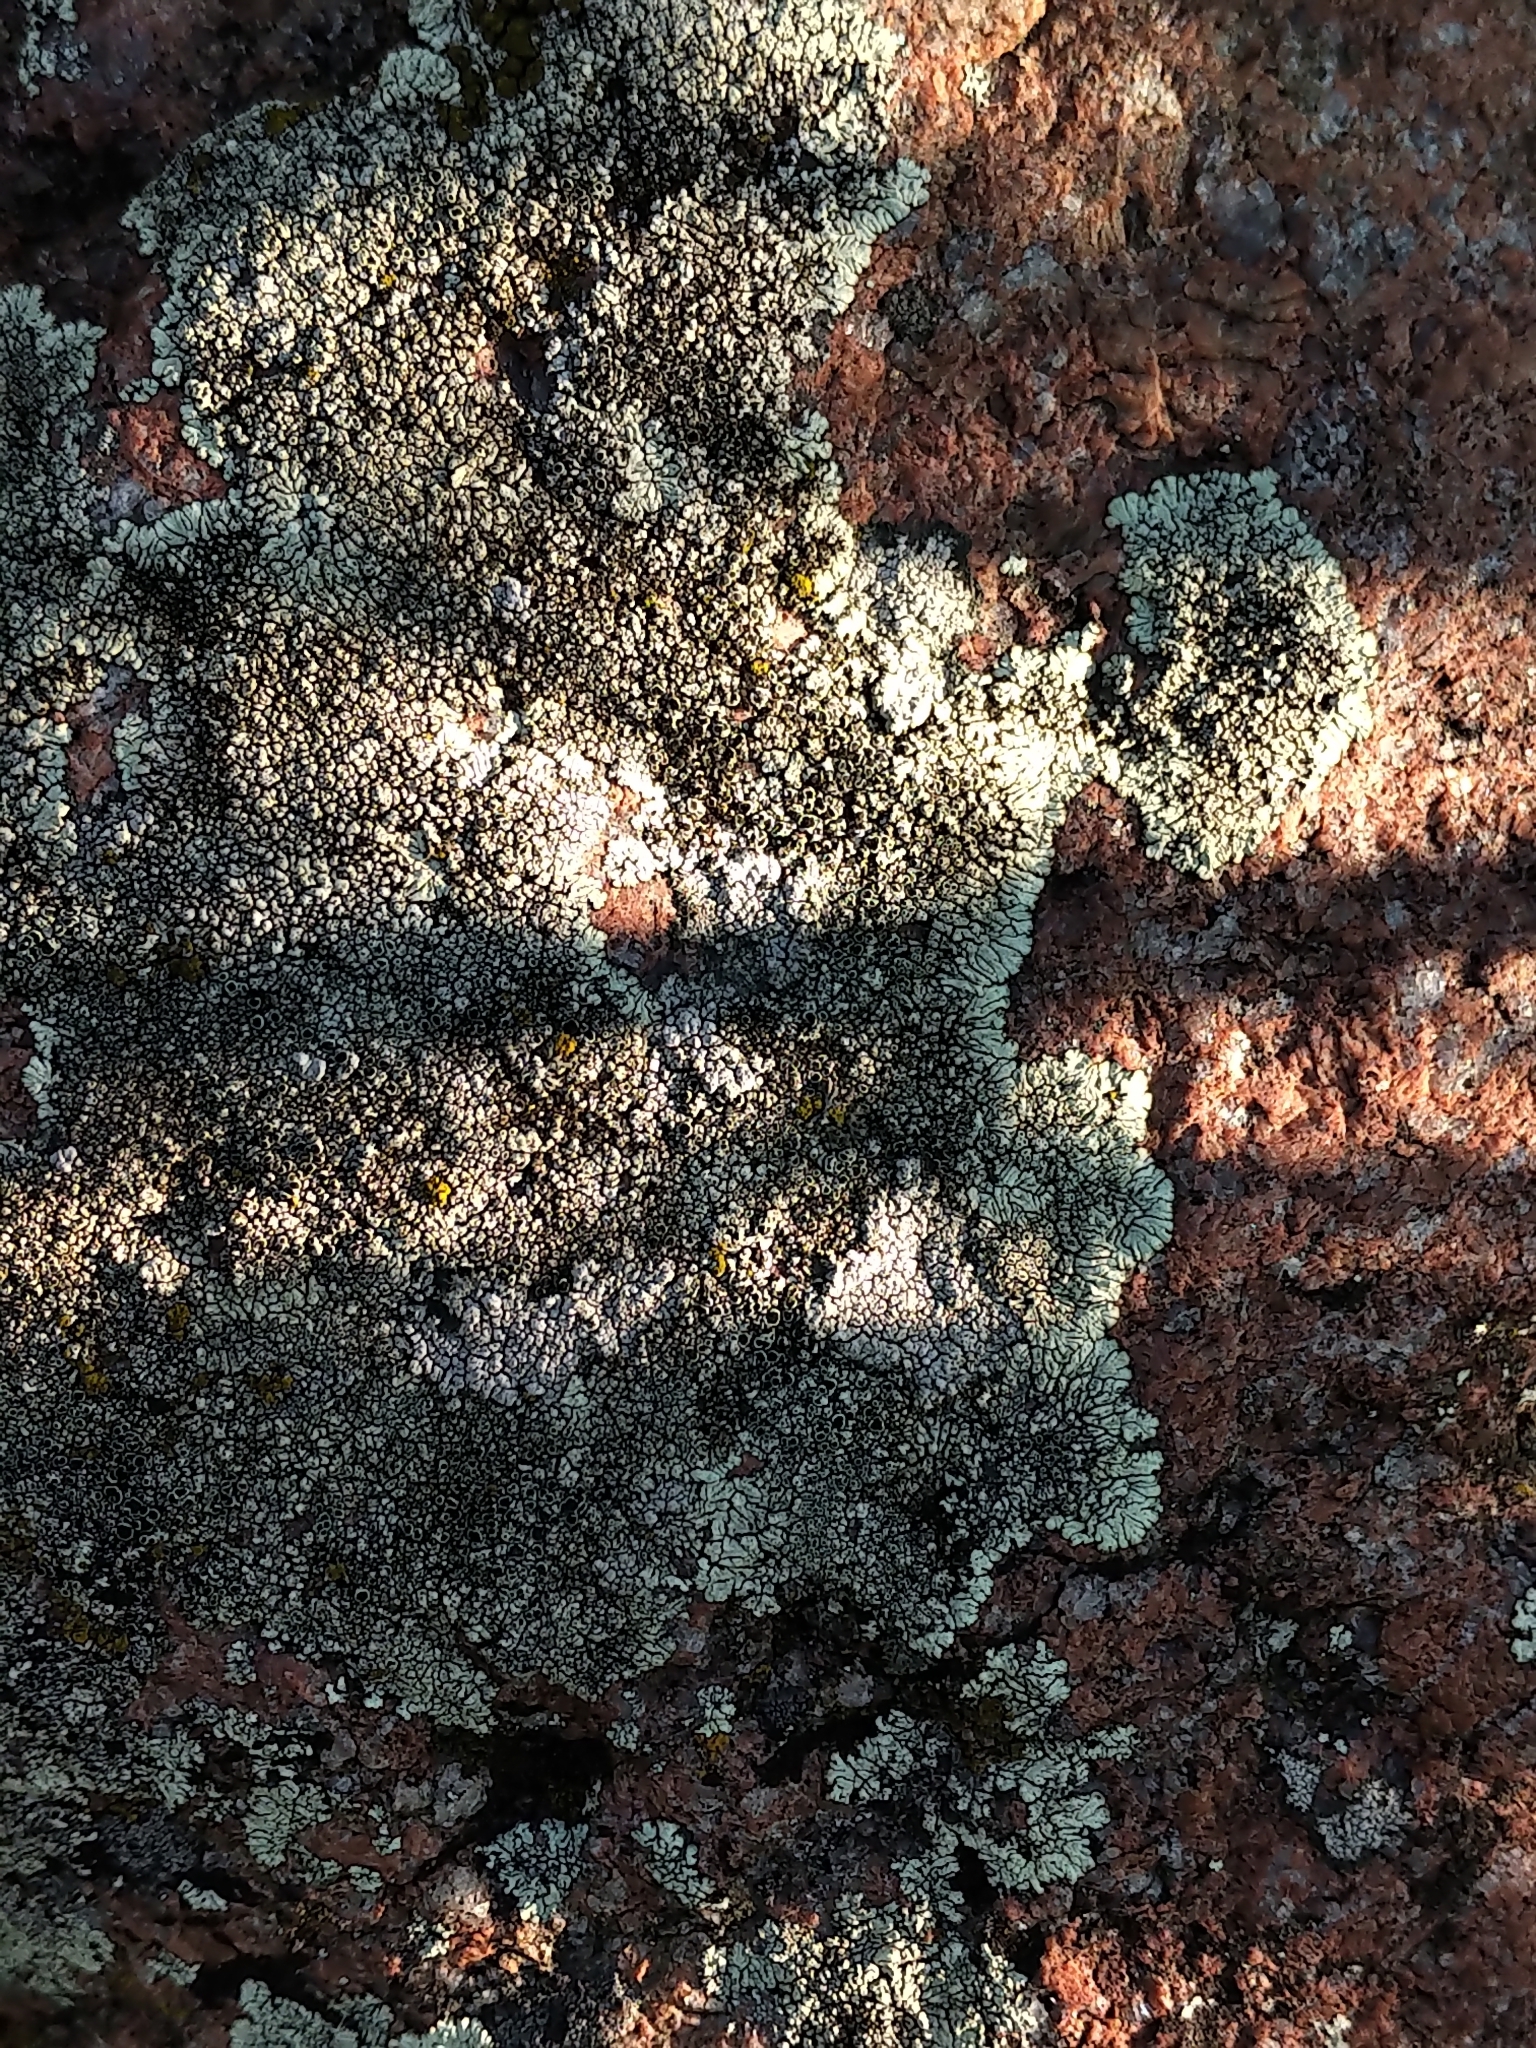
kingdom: Fungi
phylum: Ascomycota
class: Lecanoromycetes
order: Caliciales
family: Caliciaceae
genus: Dimelaena
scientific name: Dimelaena oreina
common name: Golden moonglow lichen
